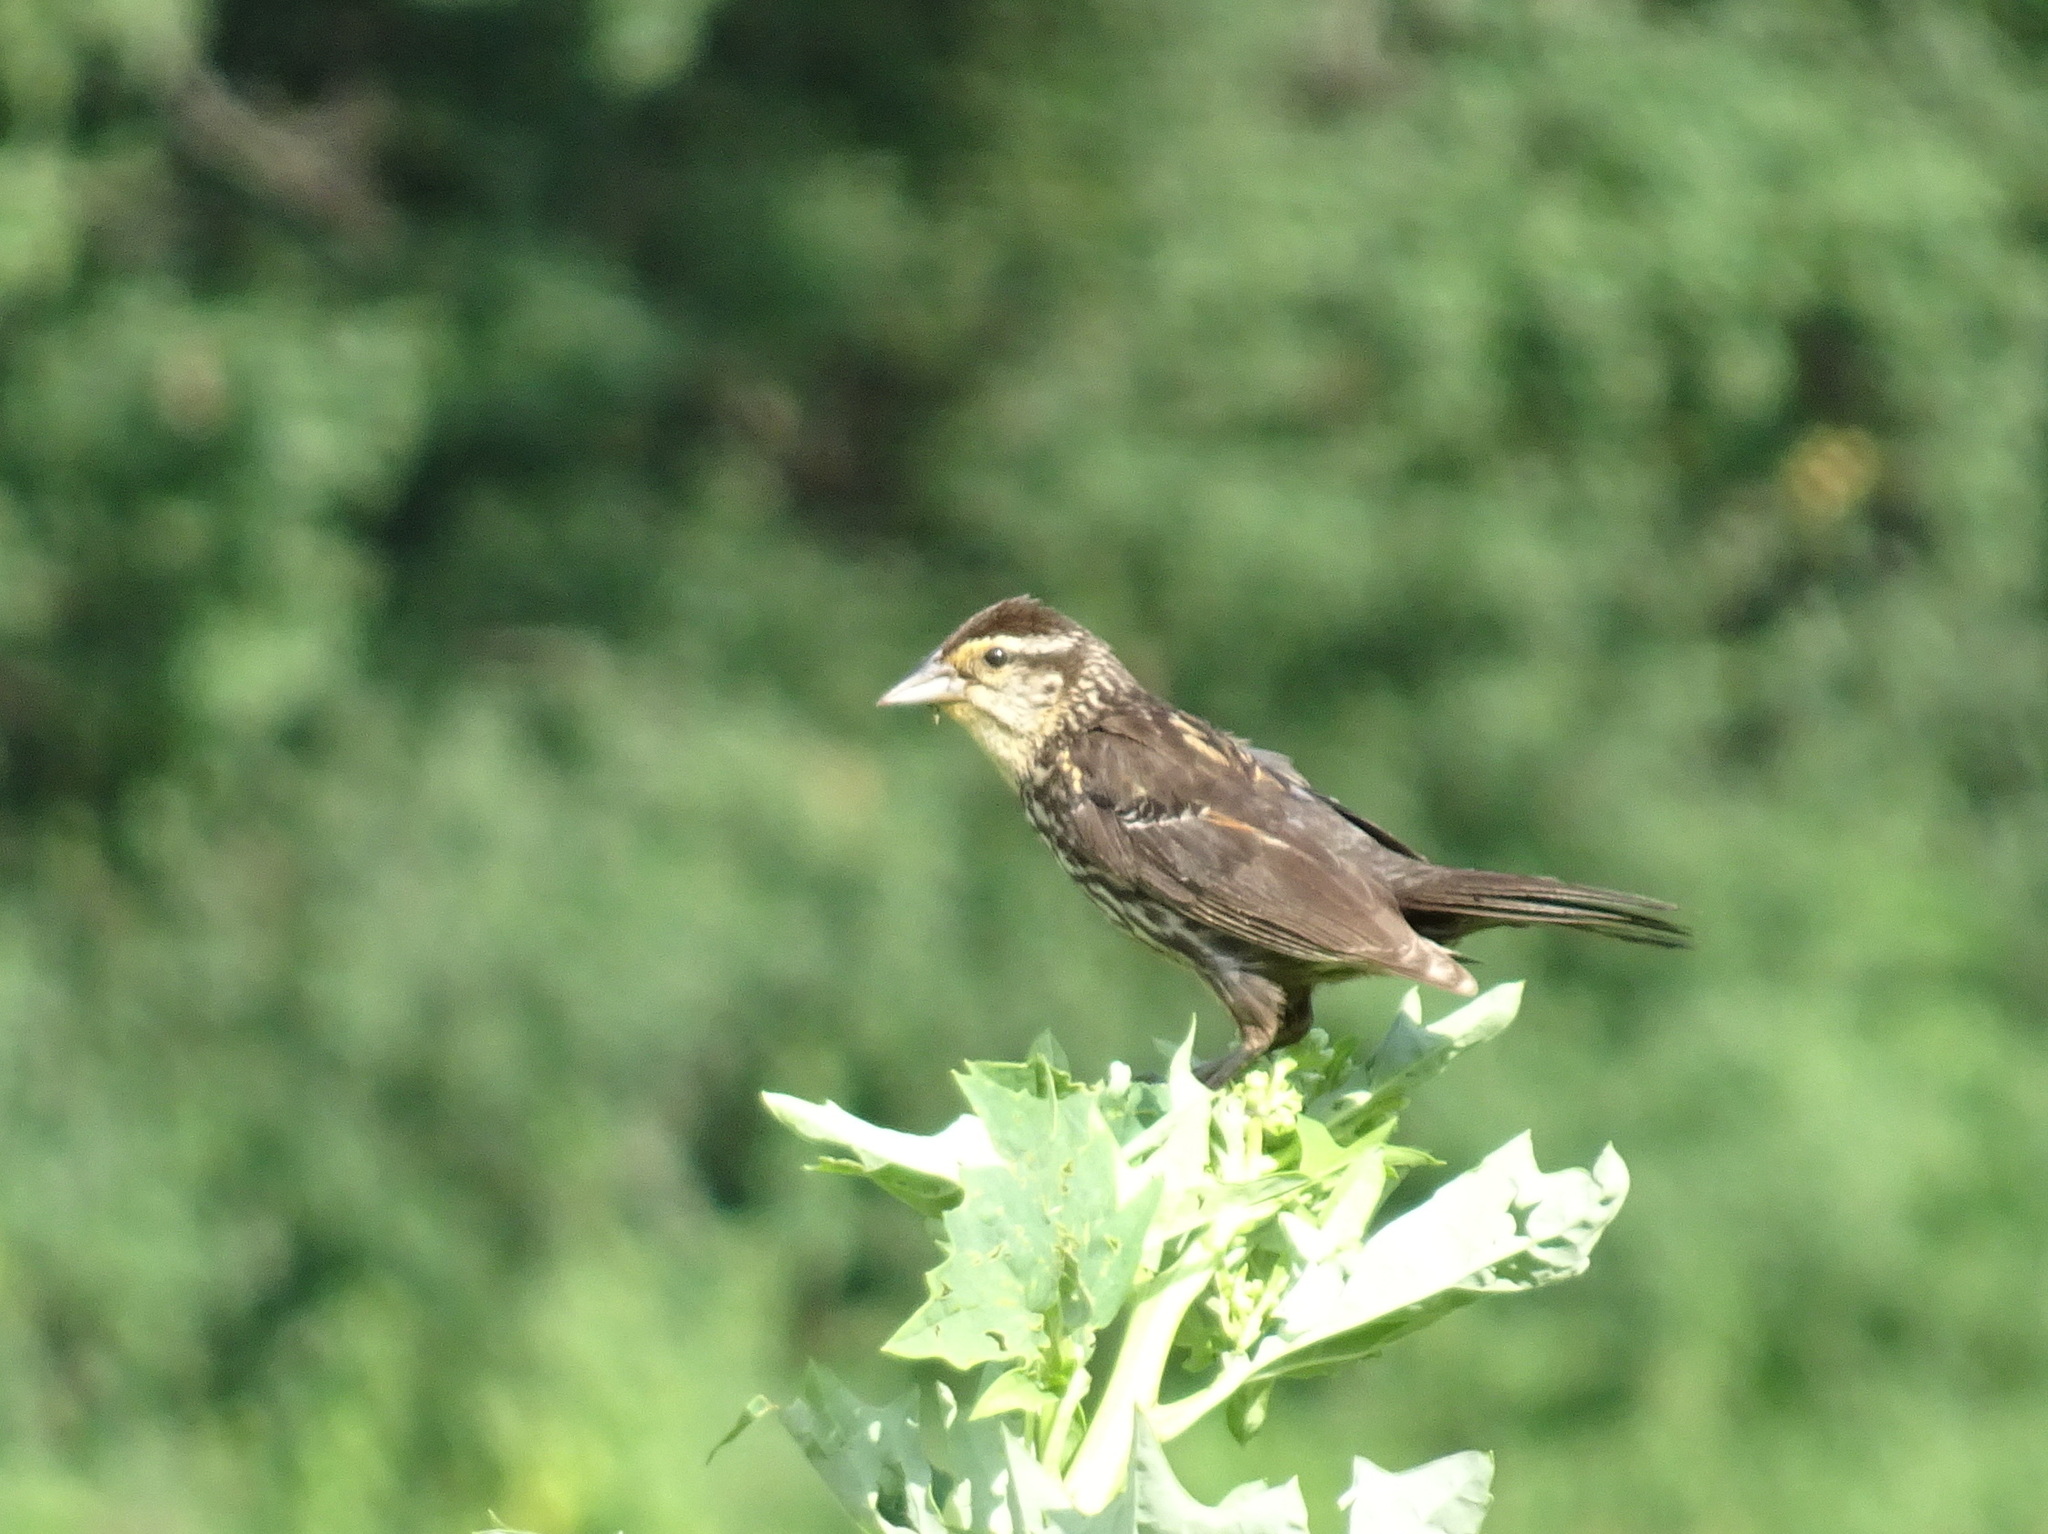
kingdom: Animalia
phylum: Chordata
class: Aves
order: Passeriformes
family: Icteridae
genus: Agelaius
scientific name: Agelaius phoeniceus
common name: Red-winged blackbird
